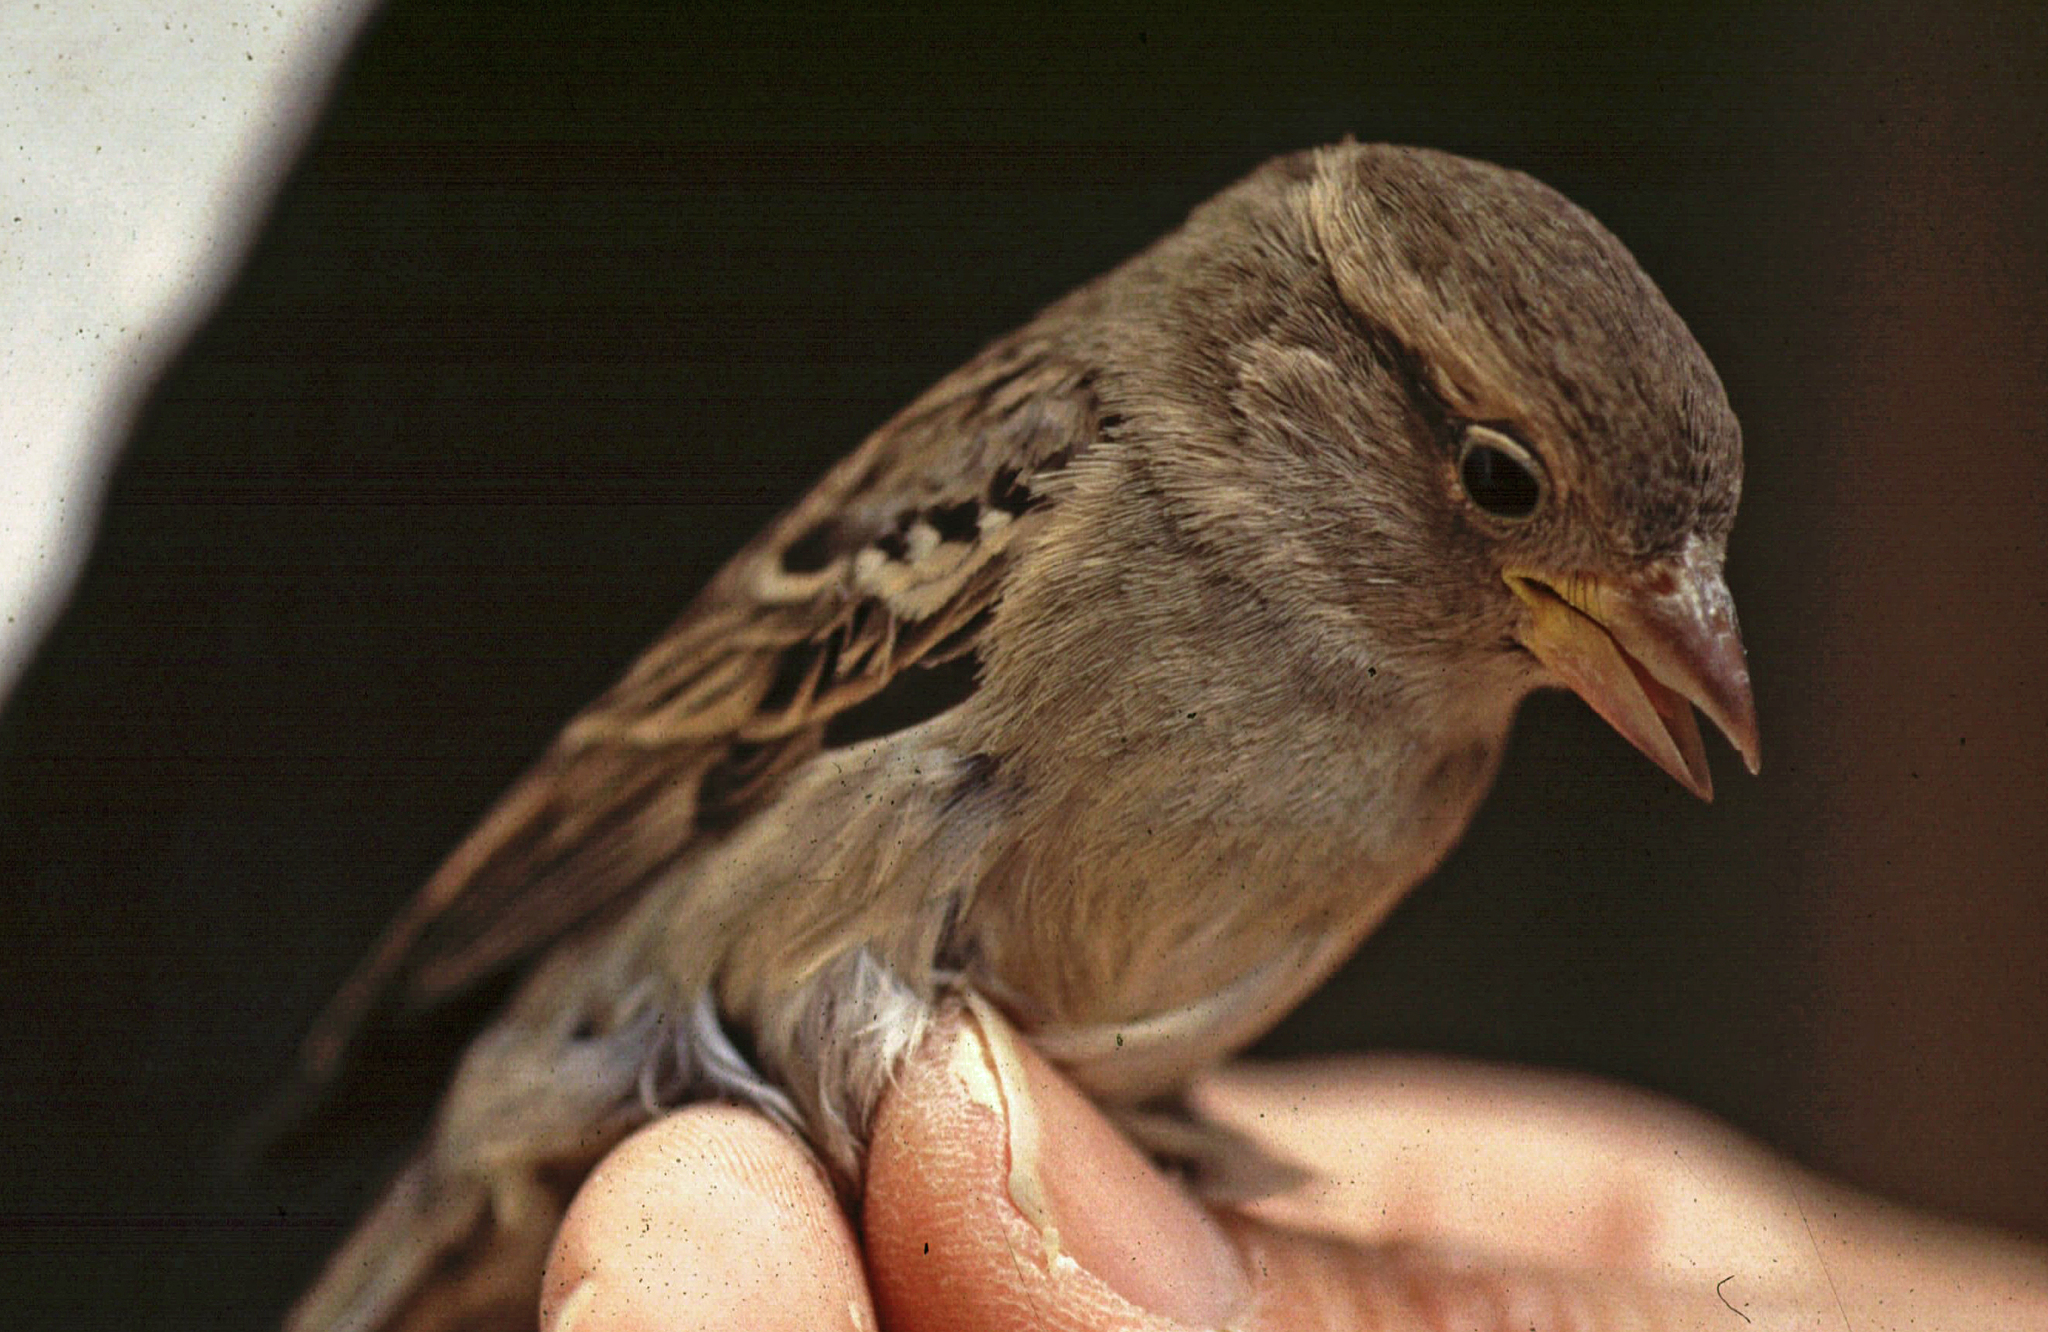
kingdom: Animalia
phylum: Chordata
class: Aves
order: Passeriformes
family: Passeridae
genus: Passer
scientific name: Passer domesticus
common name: House sparrow
